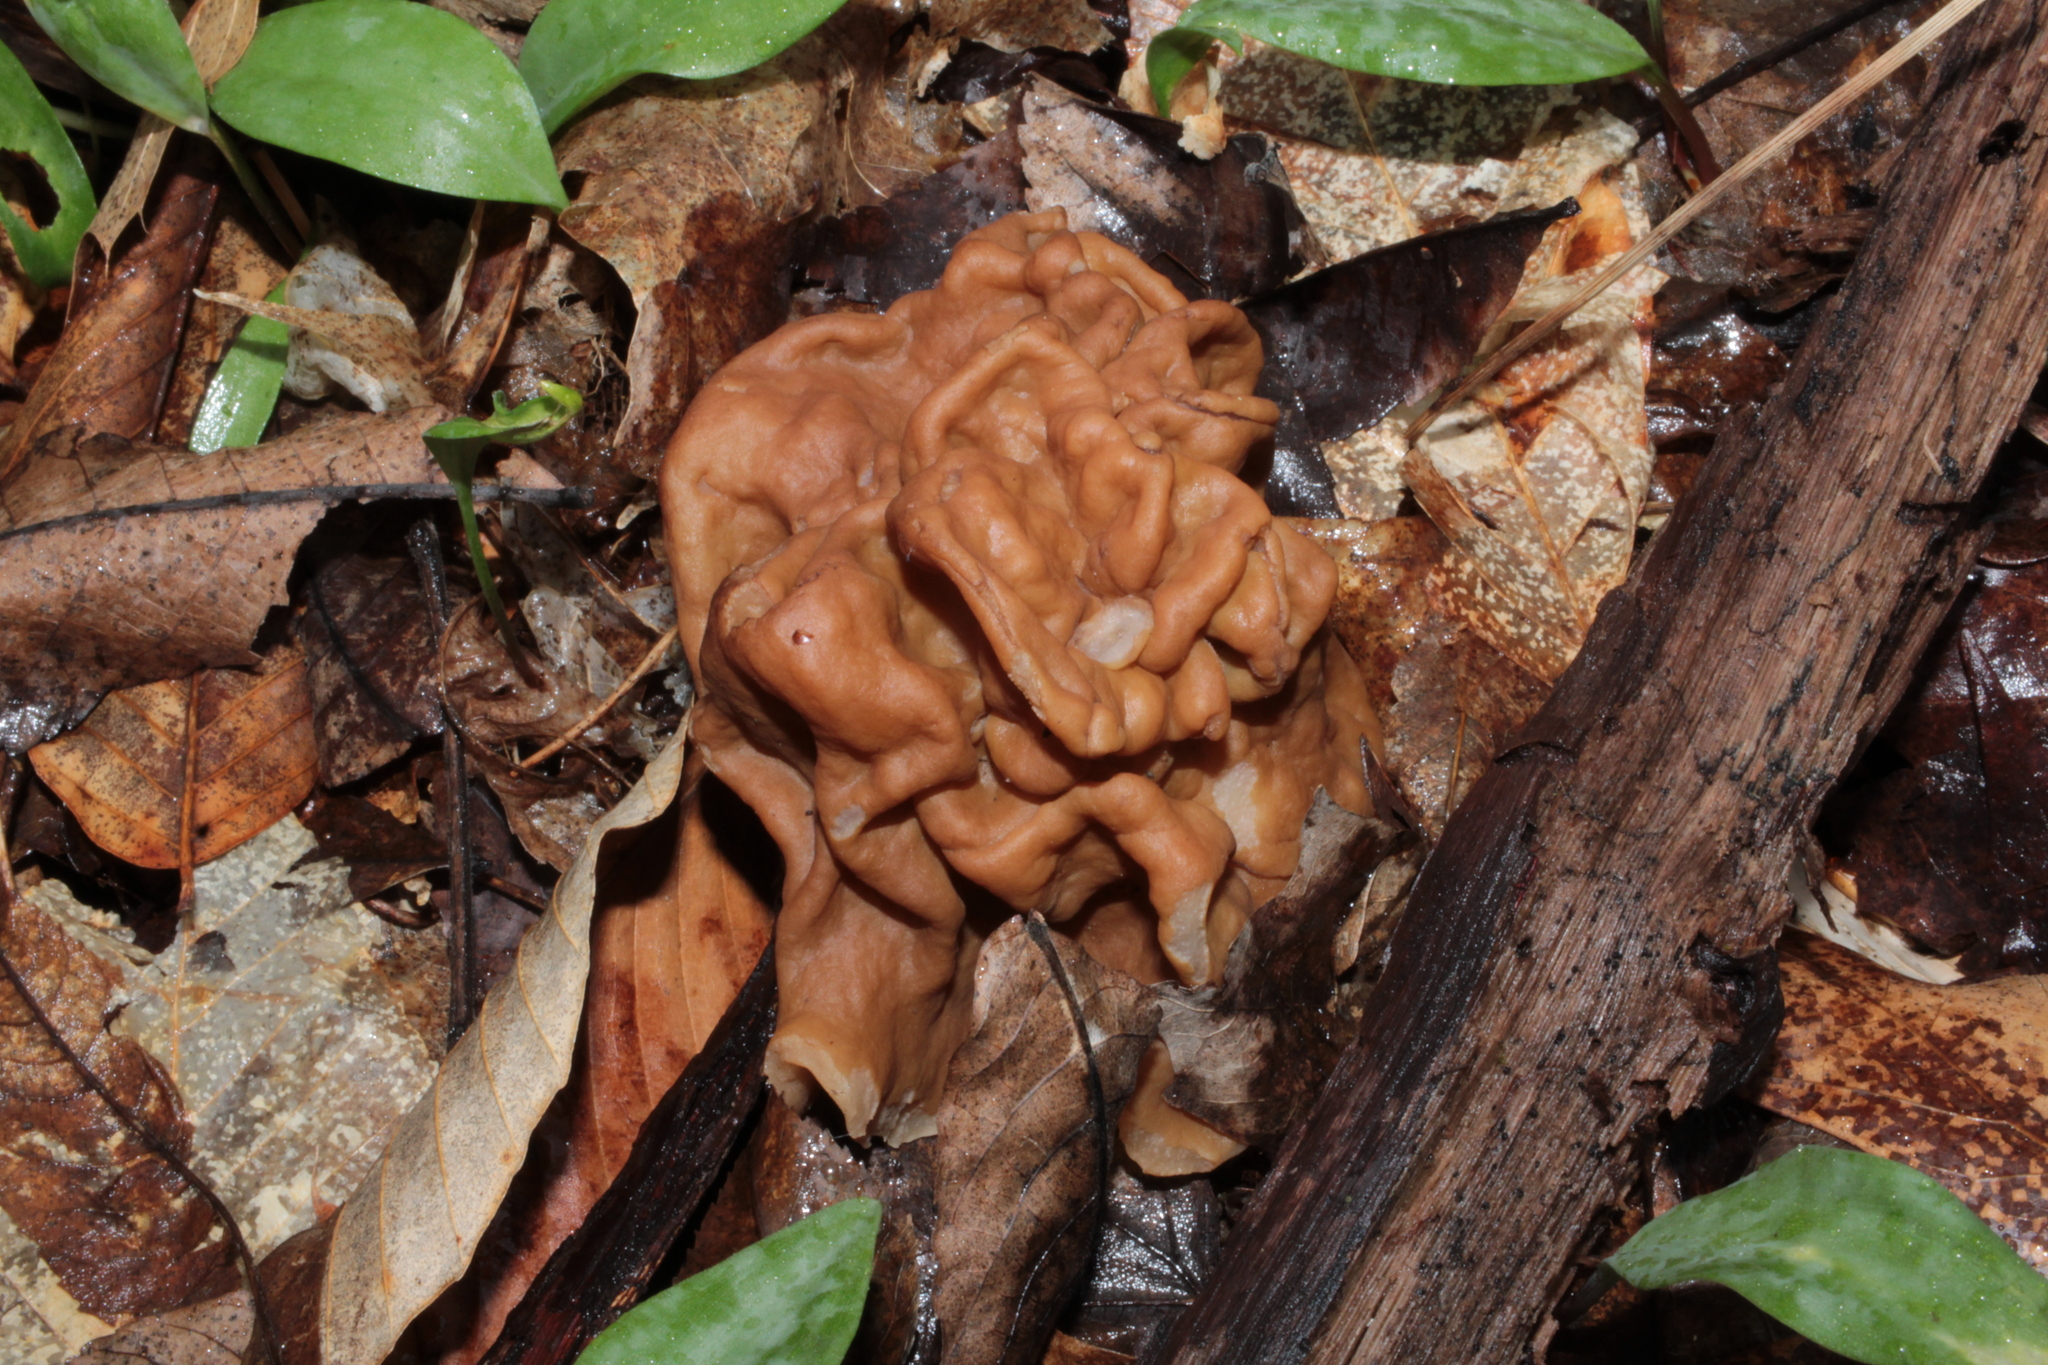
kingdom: Fungi
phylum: Ascomycota
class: Pezizomycetes
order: Pezizales
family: Discinaceae
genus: Gyromitra
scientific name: Gyromitra korfii
